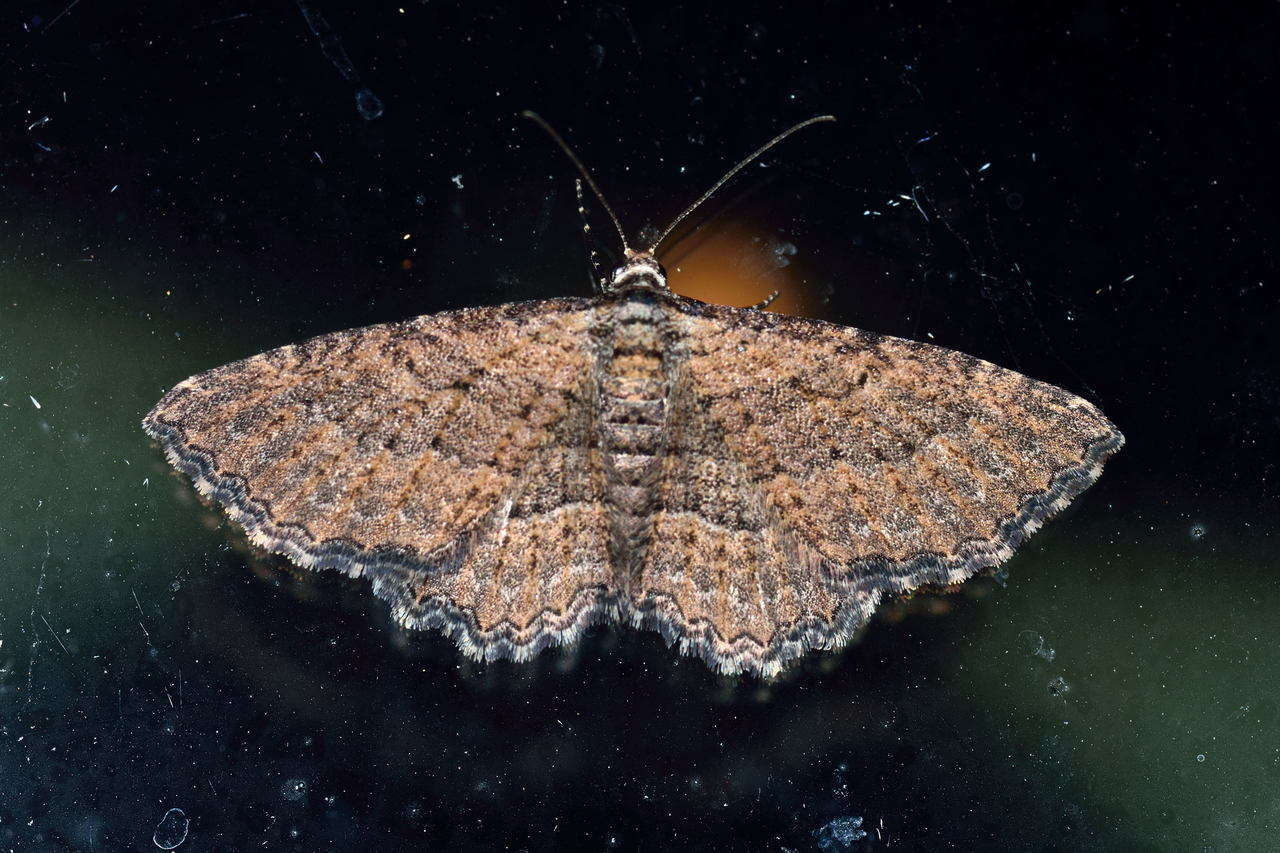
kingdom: Animalia
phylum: Arthropoda
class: Insecta
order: Lepidoptera
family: Geometridae
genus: Chrysolarentia
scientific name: Chrysolarentia squamulata
